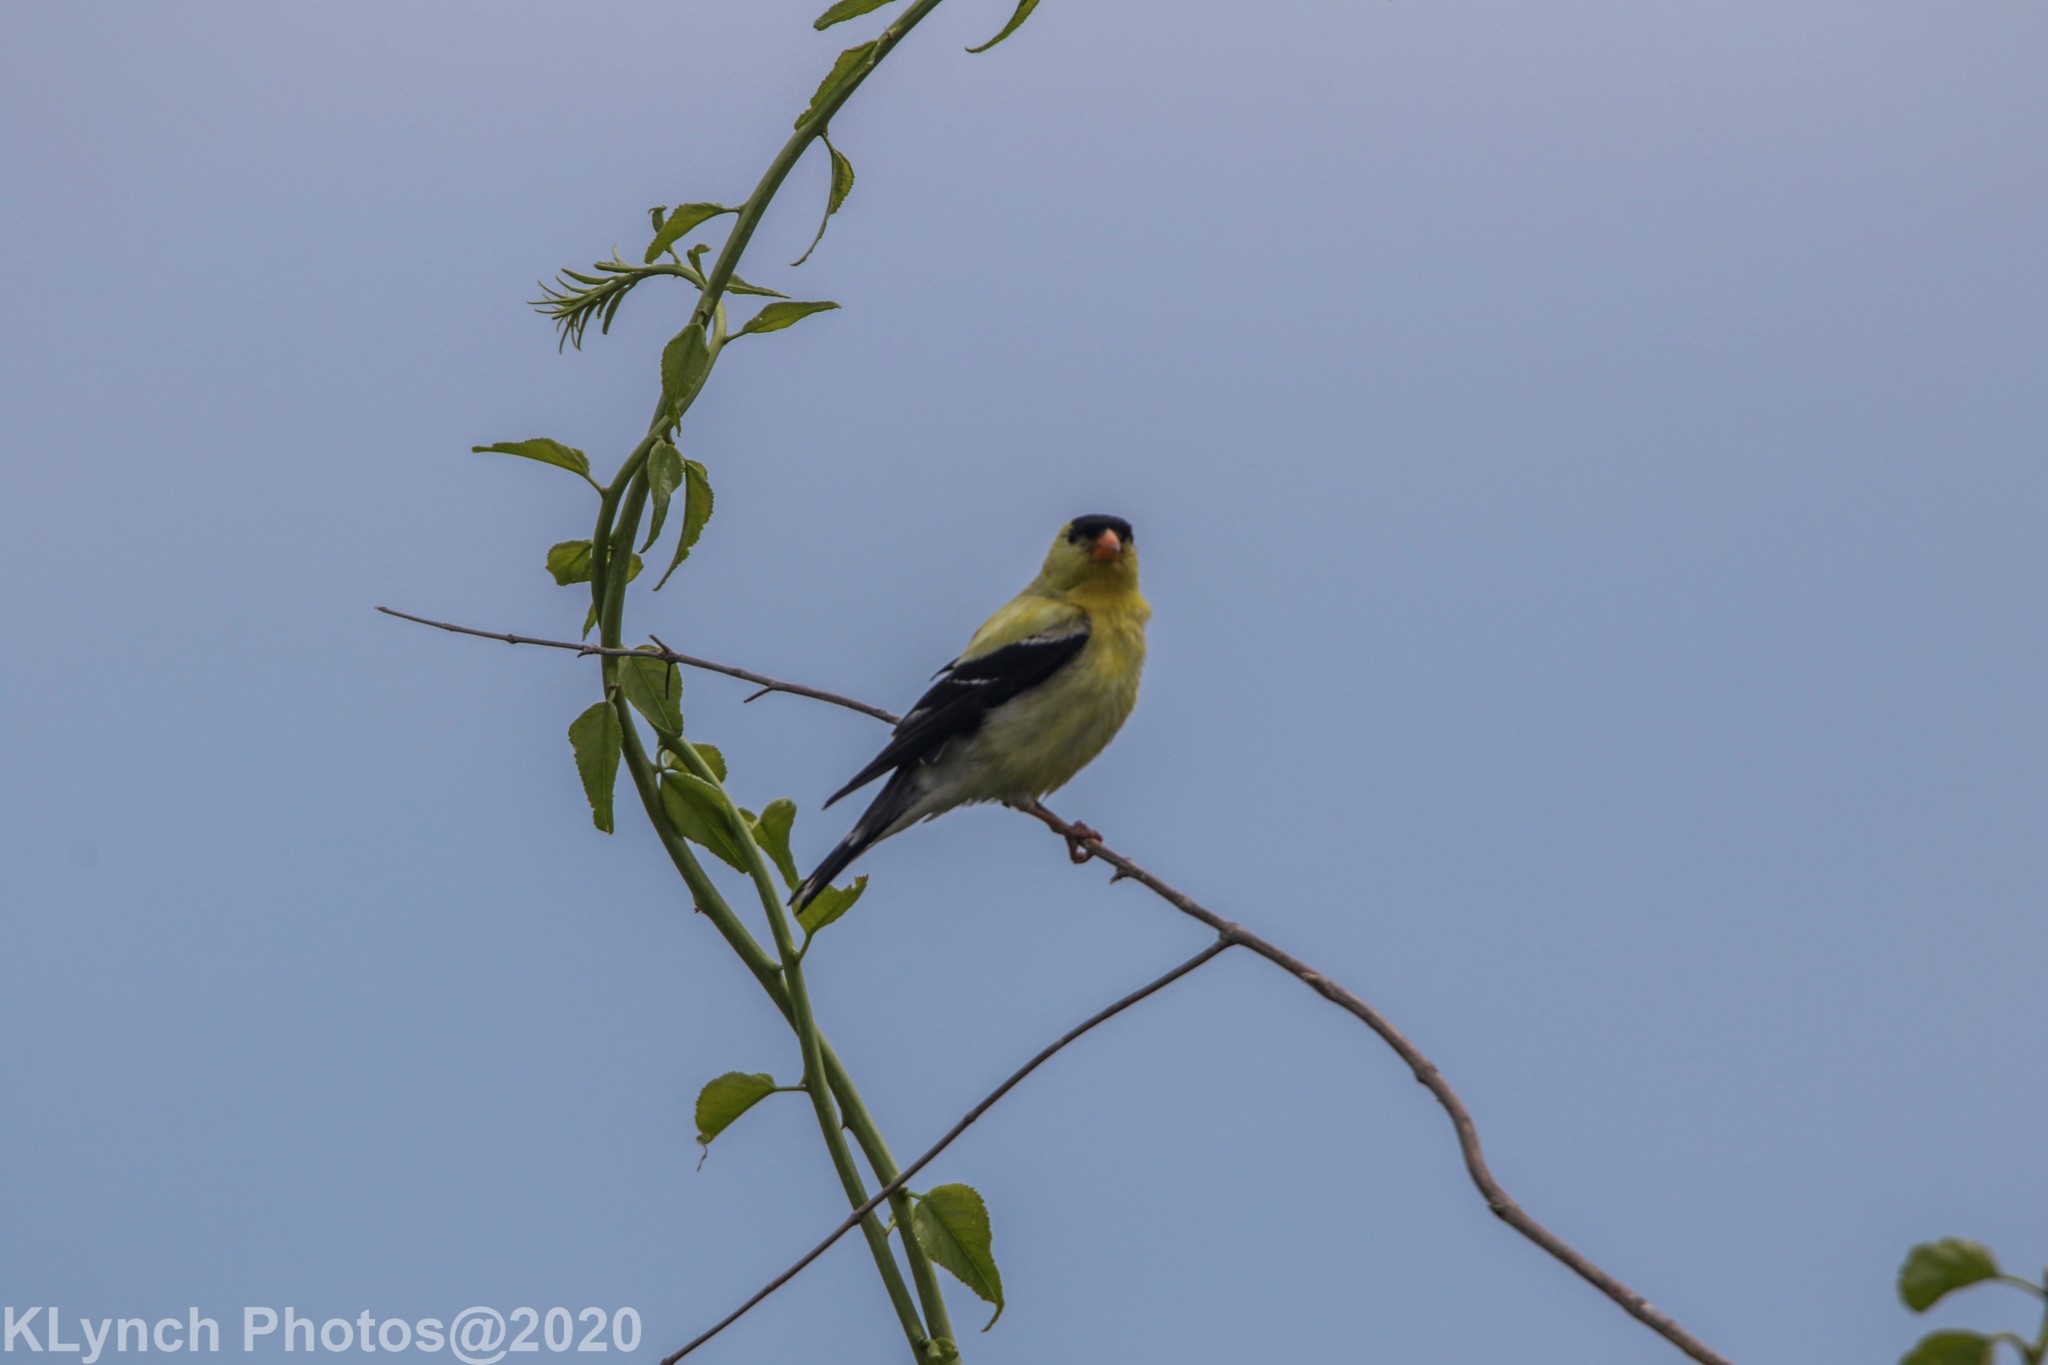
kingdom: Animalia
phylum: Chordata
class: Aves
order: Passeriformes
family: Fringillidae
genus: Spinus
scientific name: Spinus tristis
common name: American goldfinch
